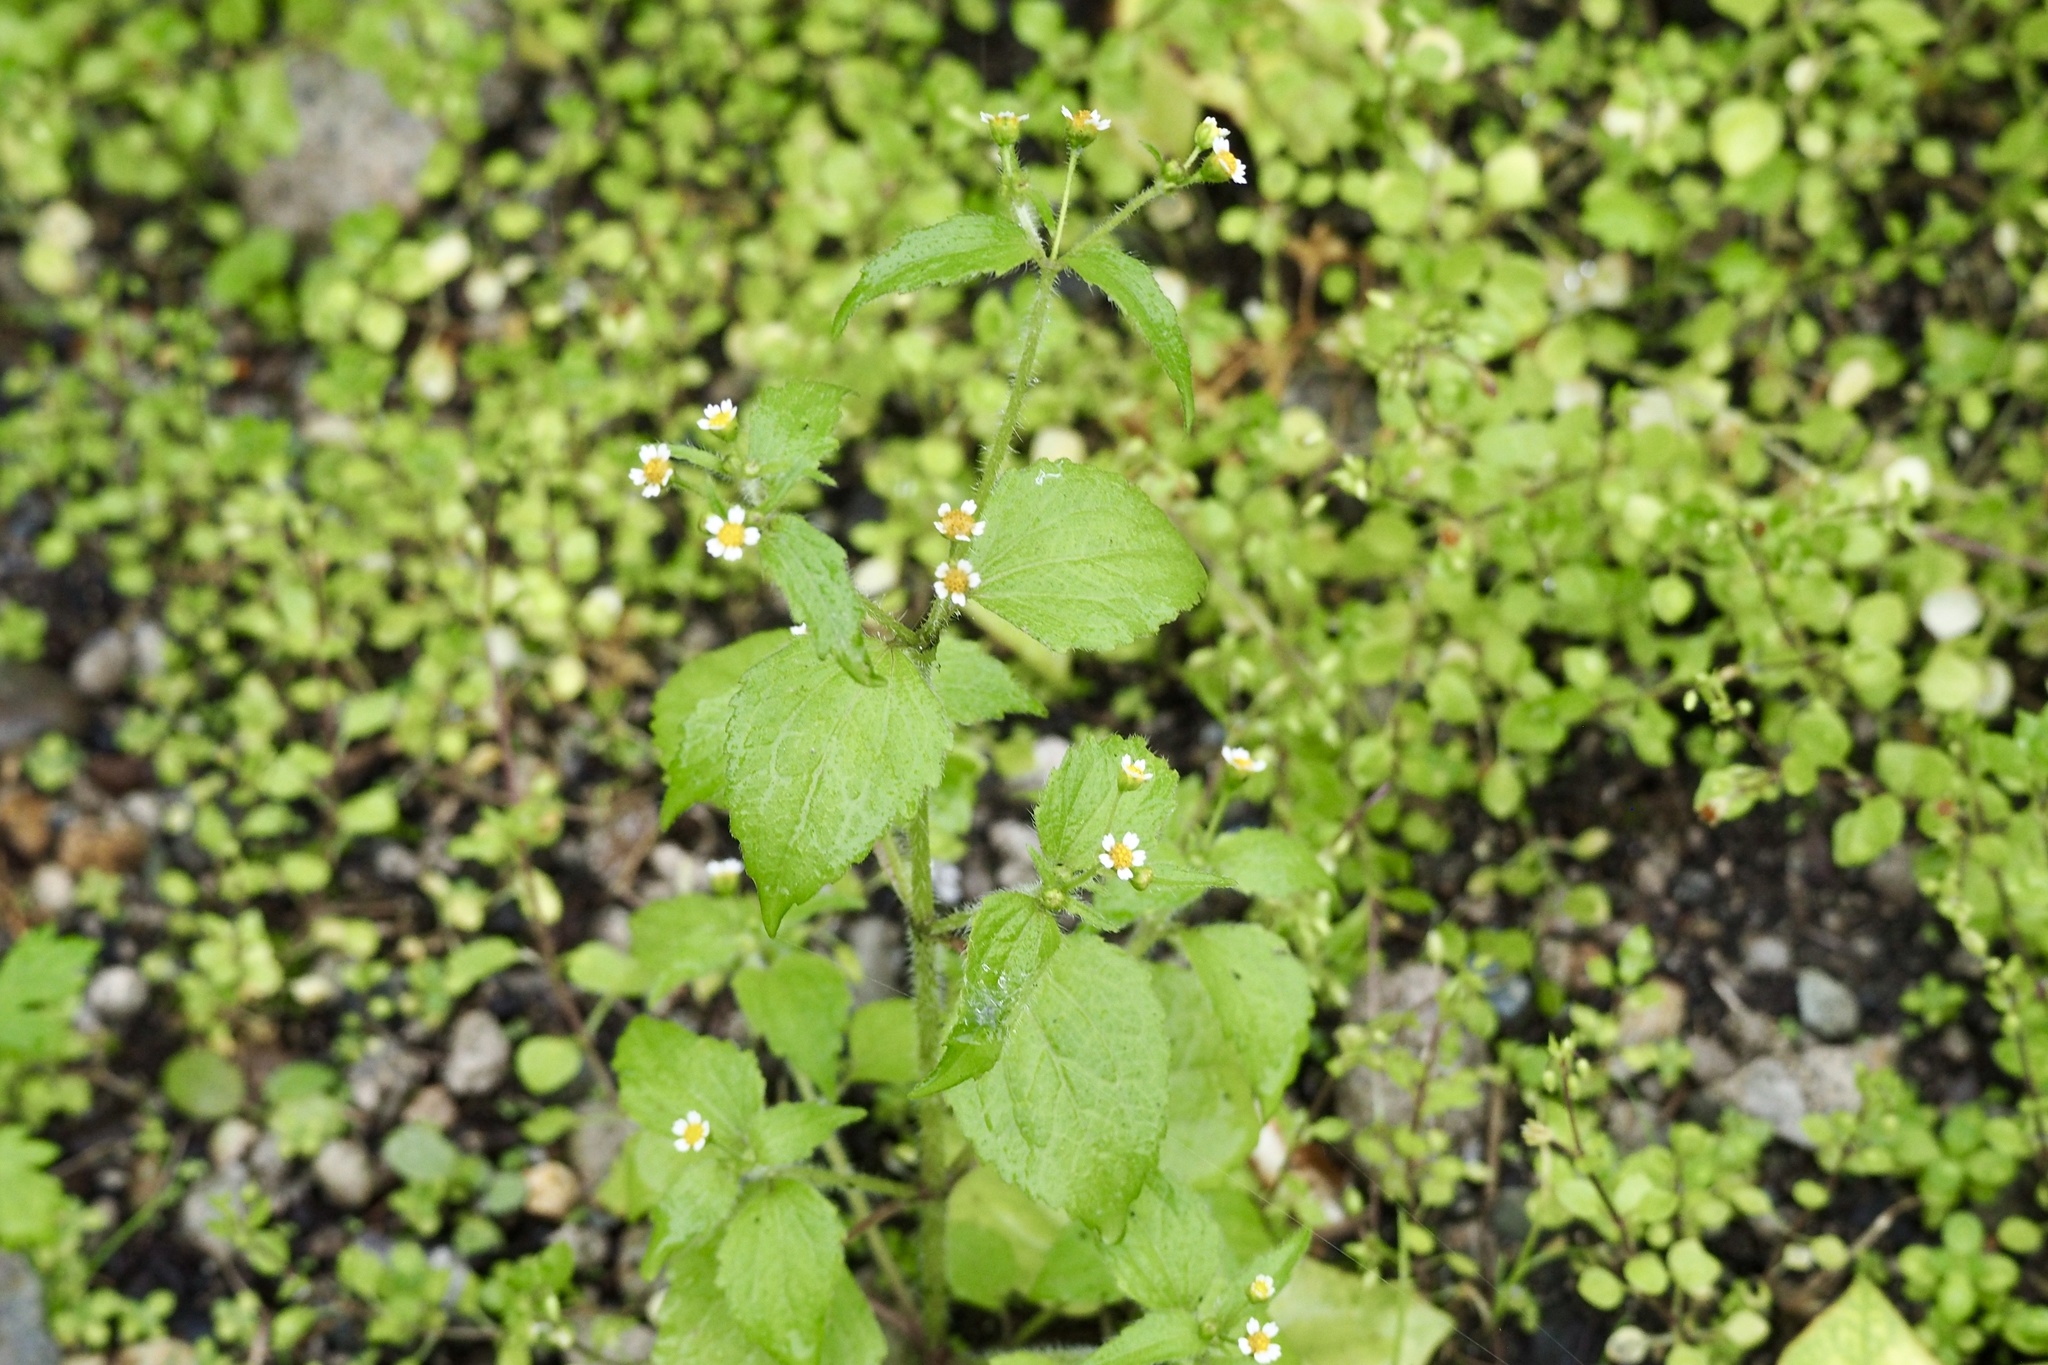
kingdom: Plantae
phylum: Tracheophyta
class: Magnoliopsida
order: Asterales
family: Asteraceae
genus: Galinsoga
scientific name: Galinsoga quadriradiata
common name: Shaggy soldier
